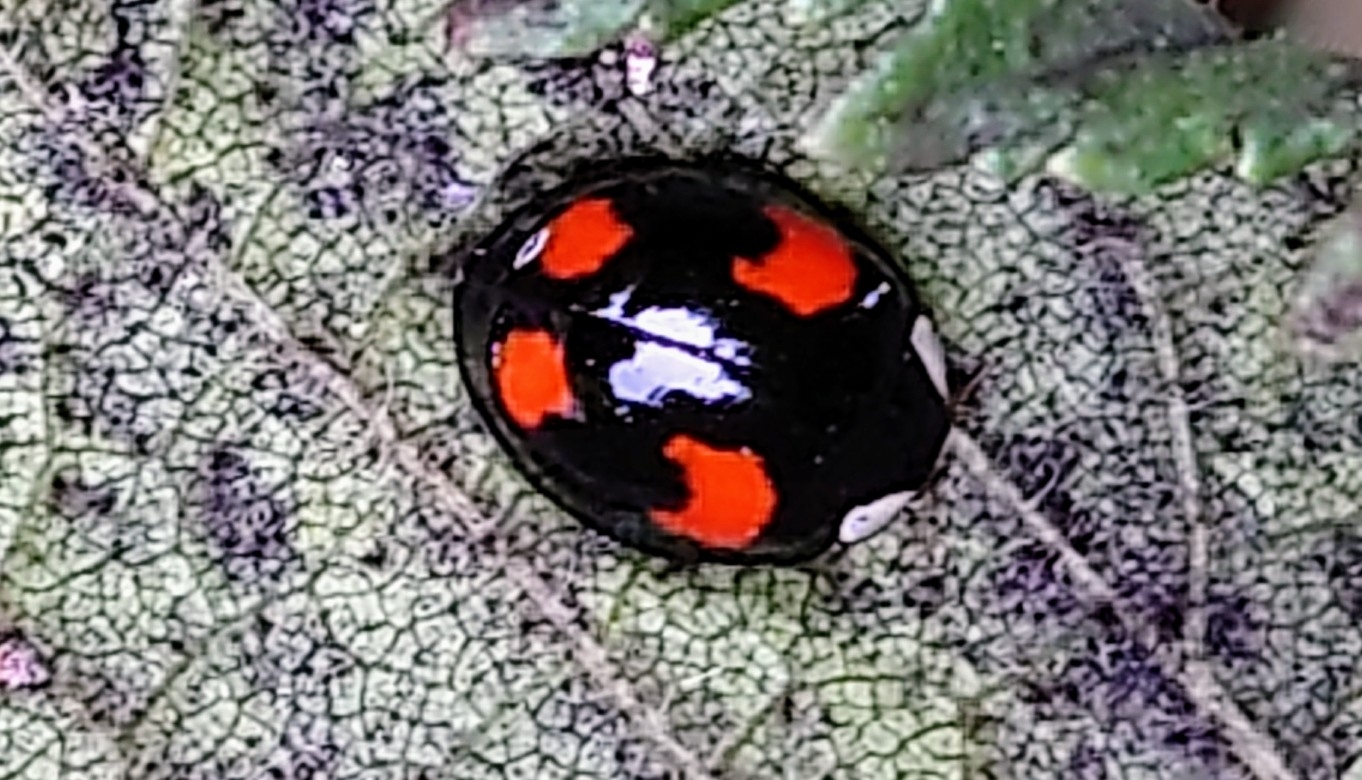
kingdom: Animalia
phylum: Arthropoda
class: Insecta
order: Coleoptera
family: Coccinellidae
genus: Harmonia
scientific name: Harmonia axyridis
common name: Harlequin ladybird
